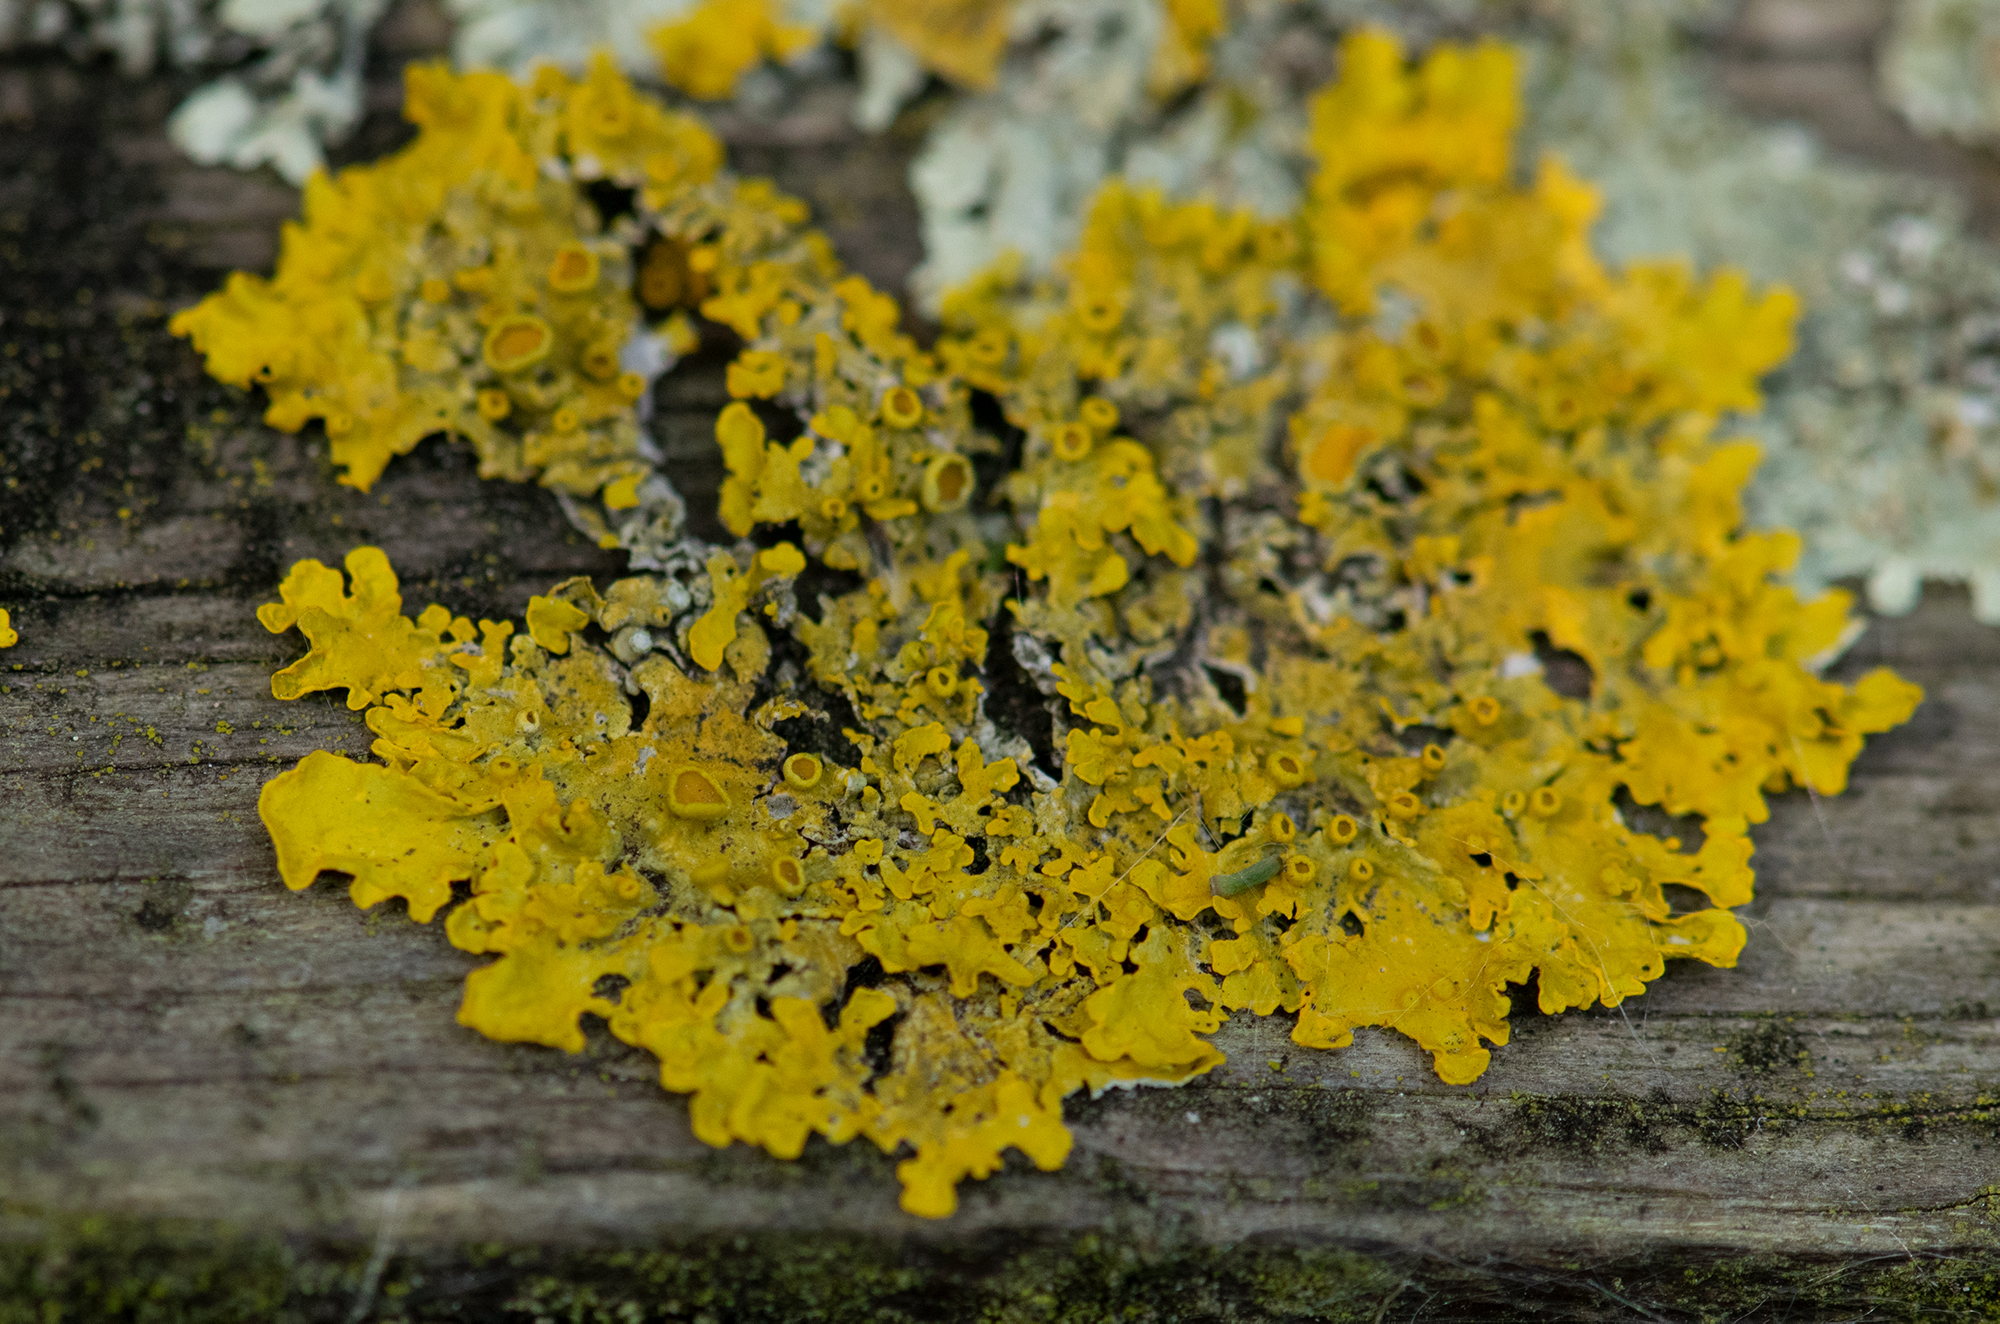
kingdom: Fungi
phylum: Ascomycota
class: Lecanoromycetes
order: Teloschistales
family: Teloschistaceae
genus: Xanthoria
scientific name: Xanthoria parietina
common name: Common orange lichen
